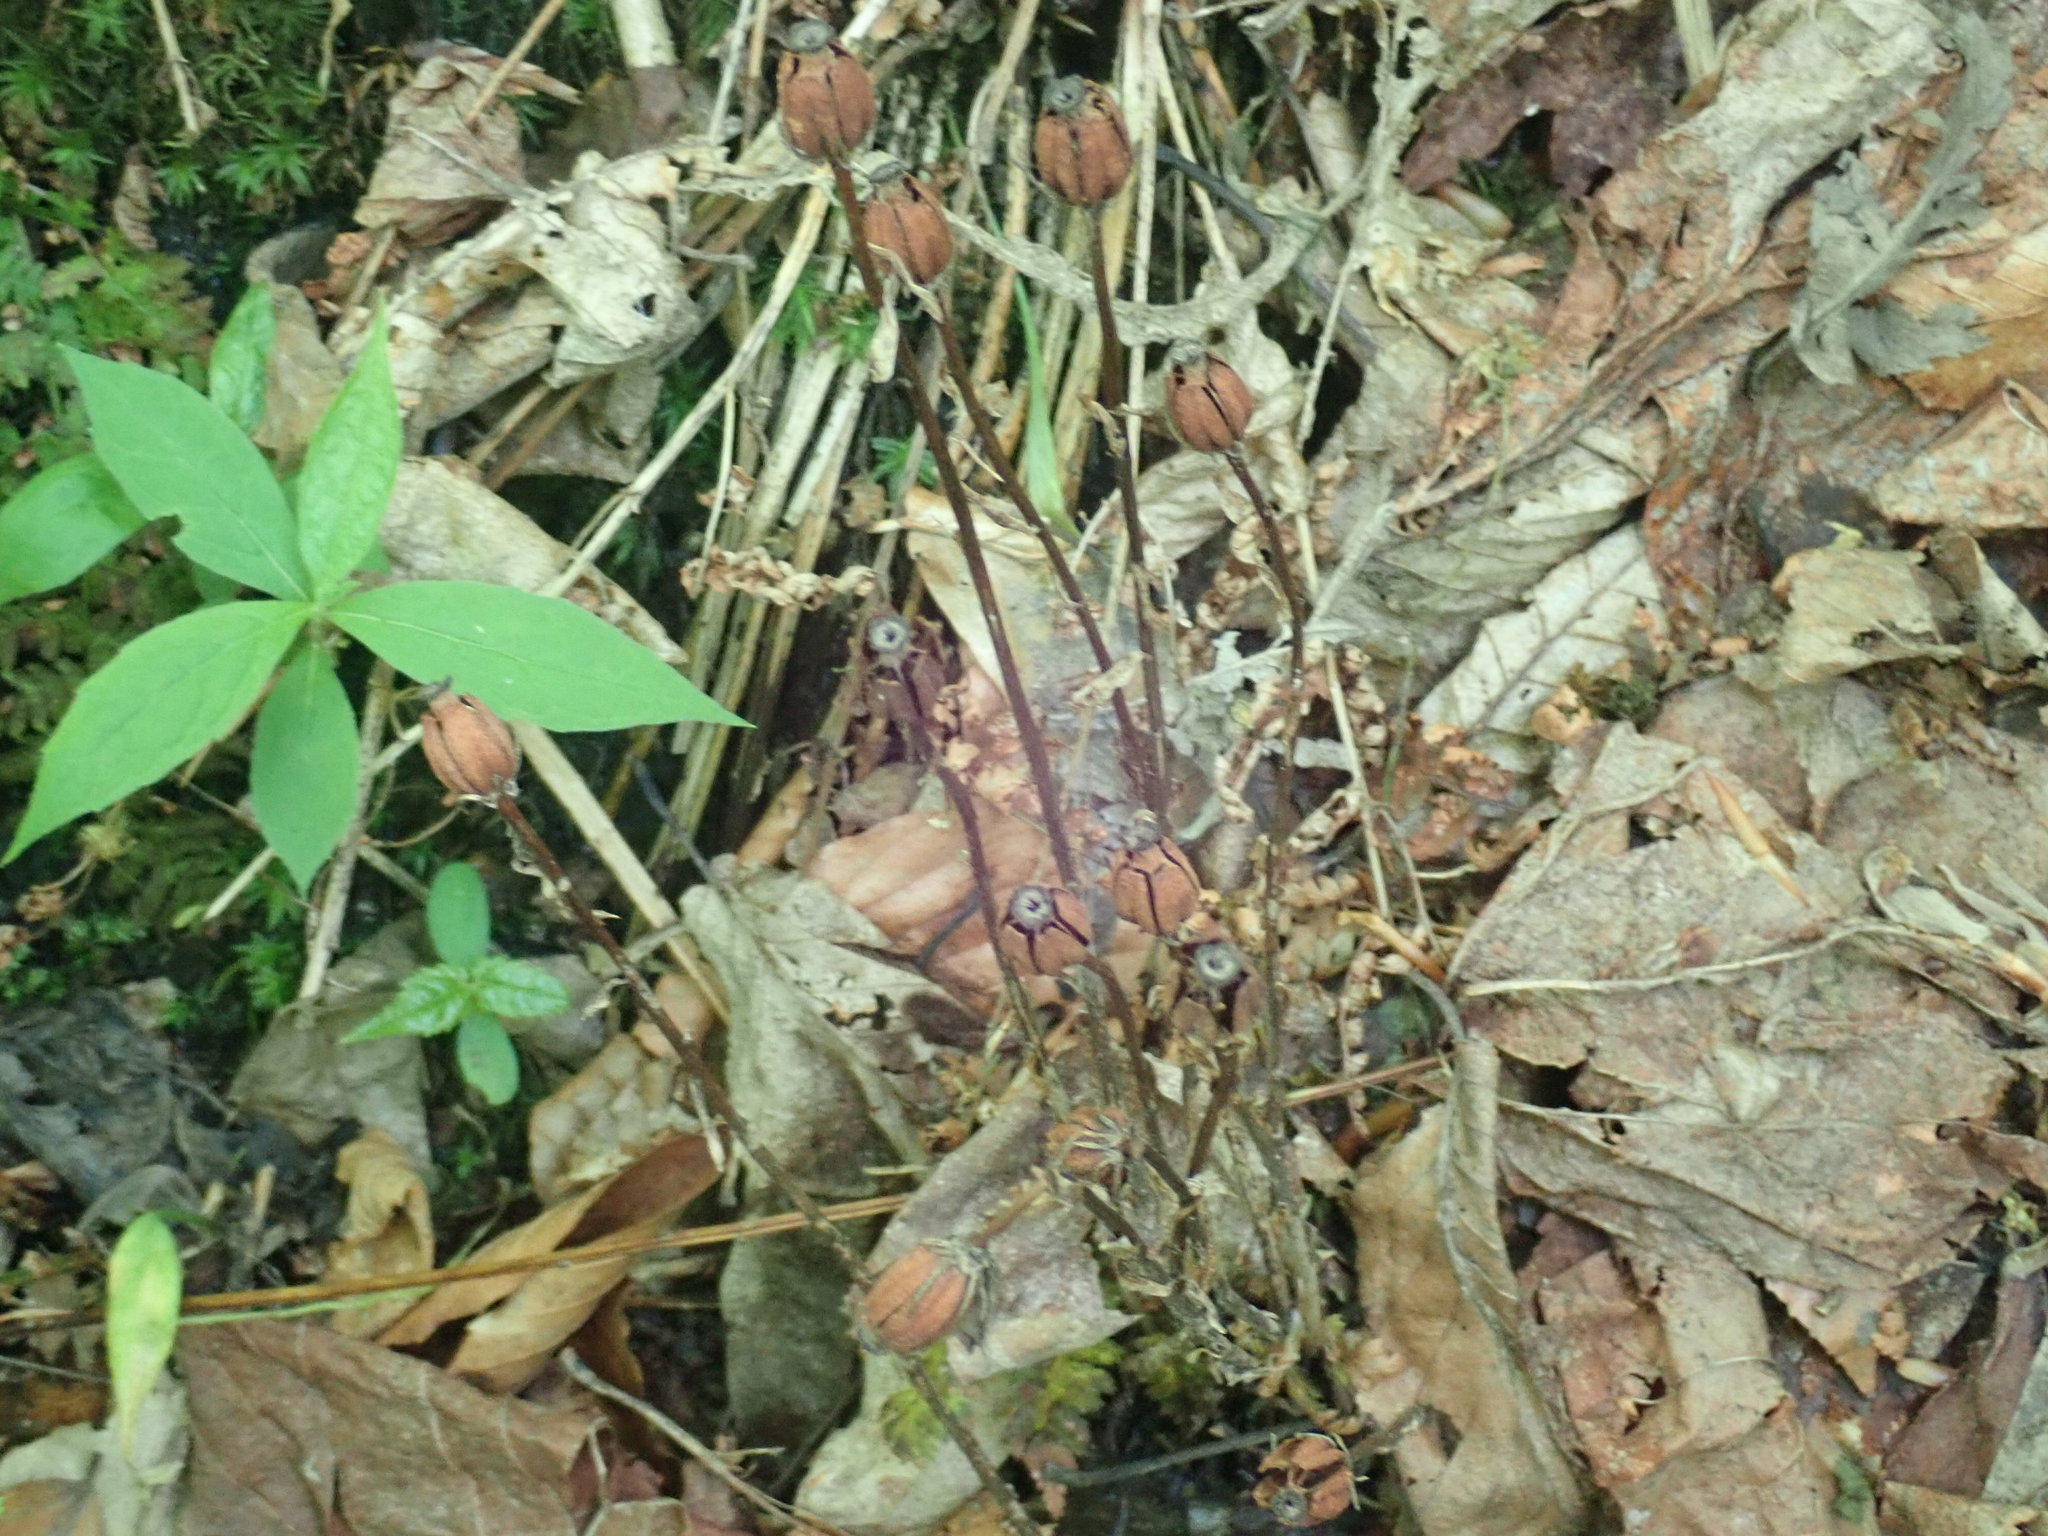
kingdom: Plantae
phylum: Tracheophyta
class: Magnoliopsida
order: Ericales
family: Ericaceae
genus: Monotropa
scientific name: Monotropa uniflora
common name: Convulsion root
